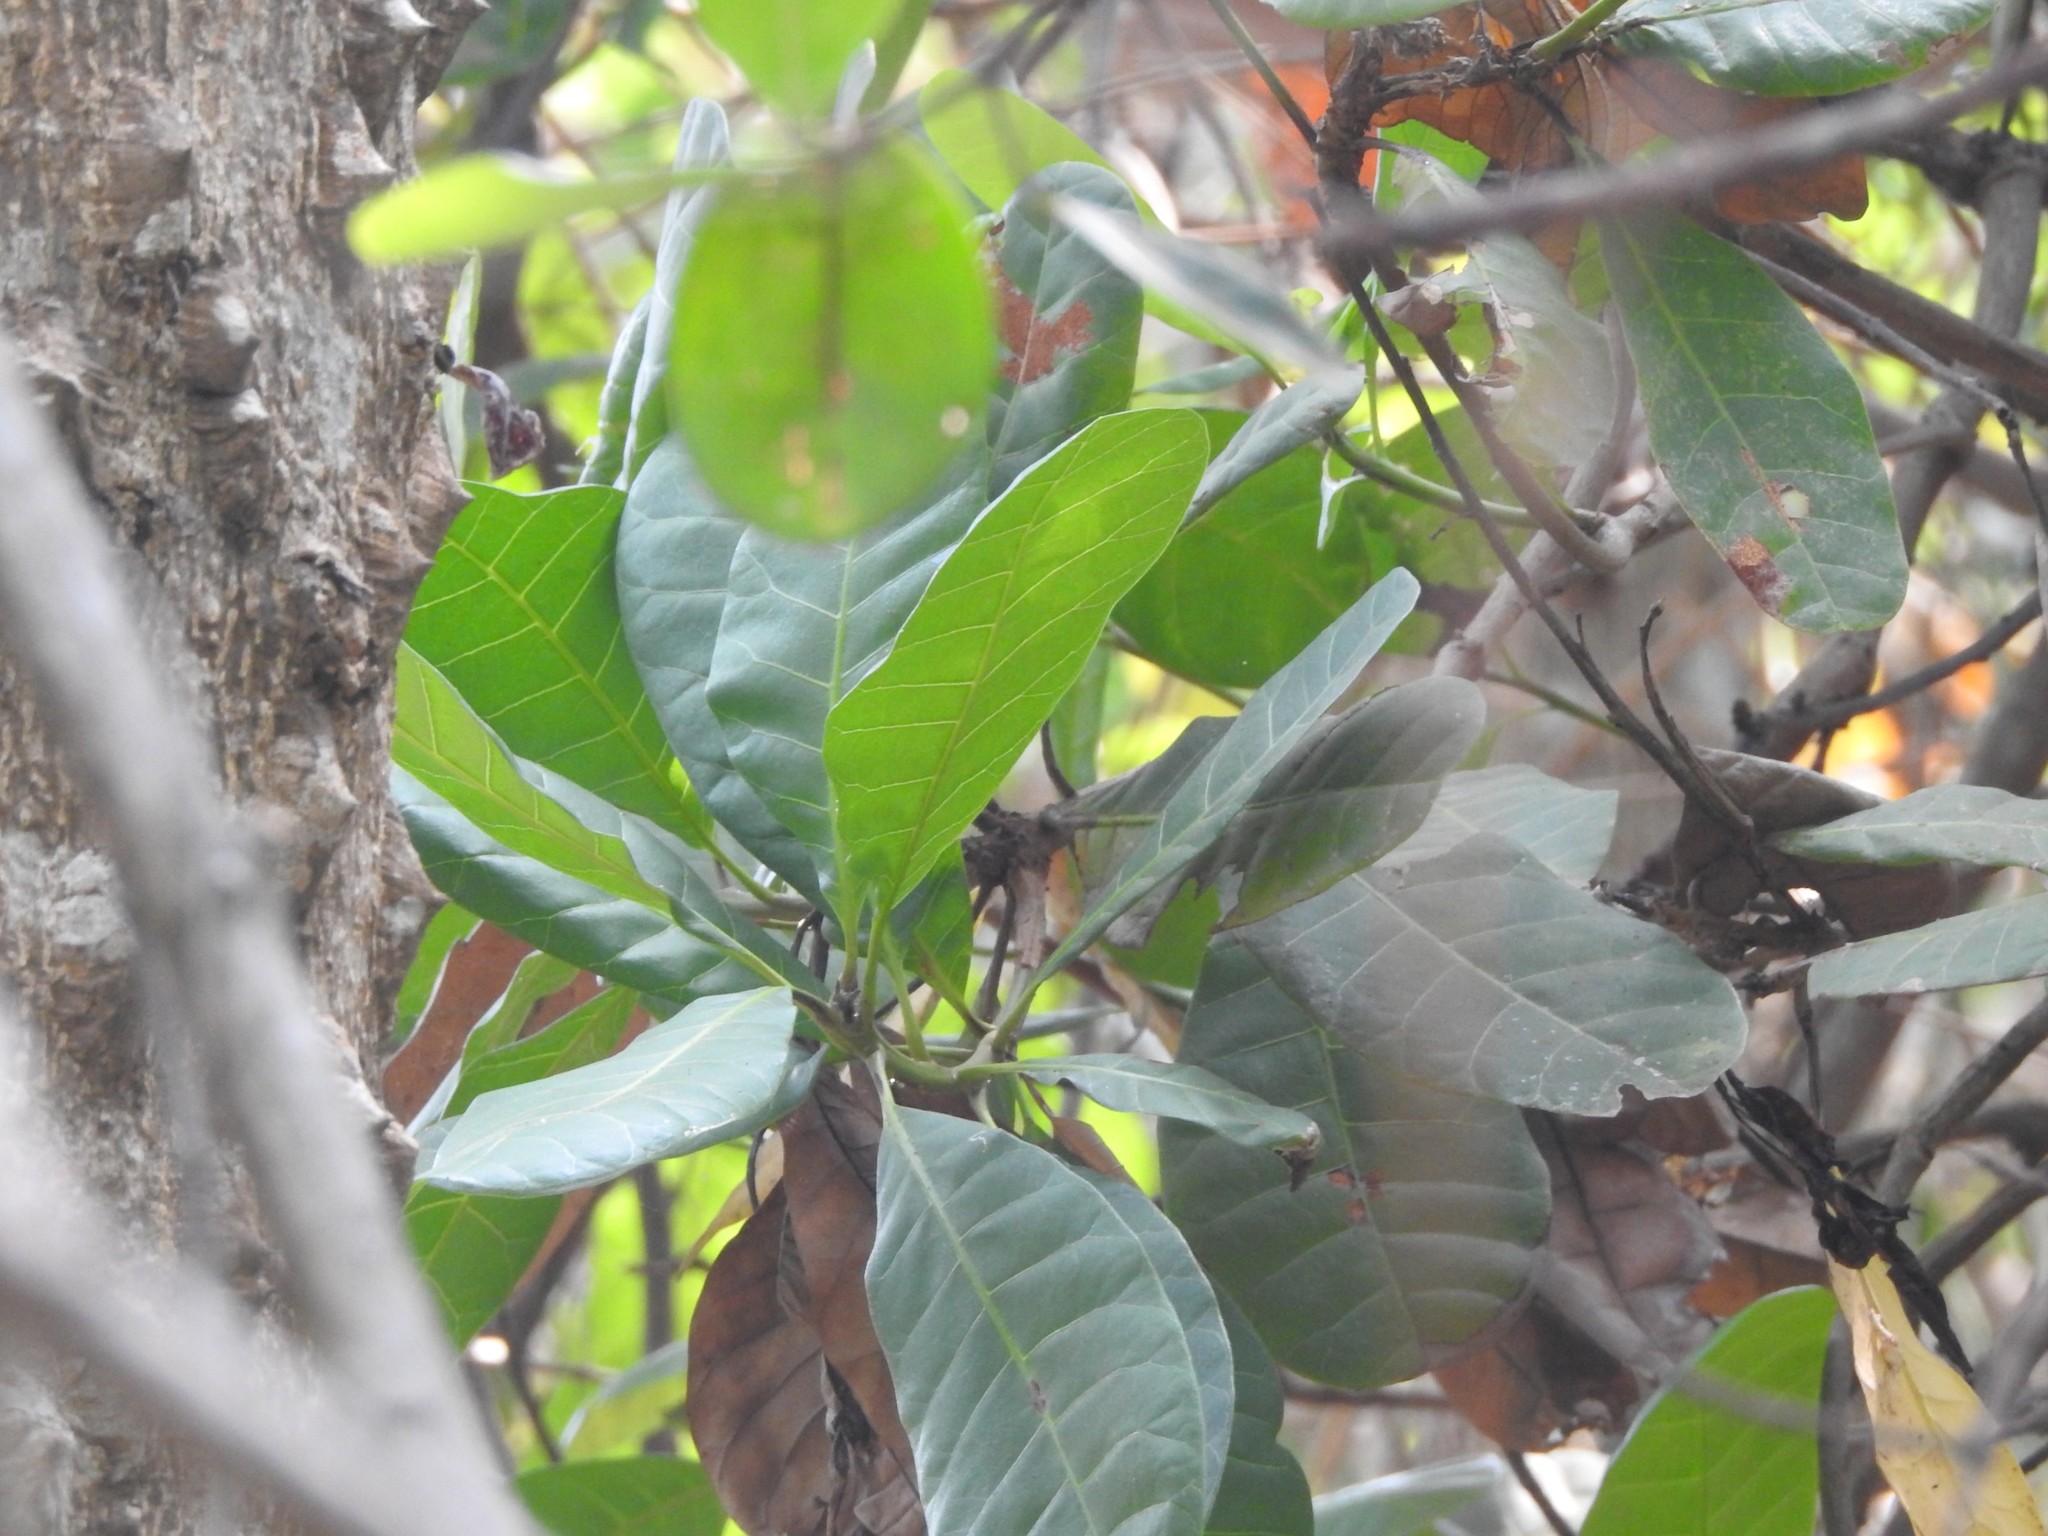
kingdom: Plantae
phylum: Tracheophyta
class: Magnoliopsida
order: Sapindales
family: Anacardiaceae
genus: Anacardium
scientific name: Anacardium occidentale
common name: Cashew
